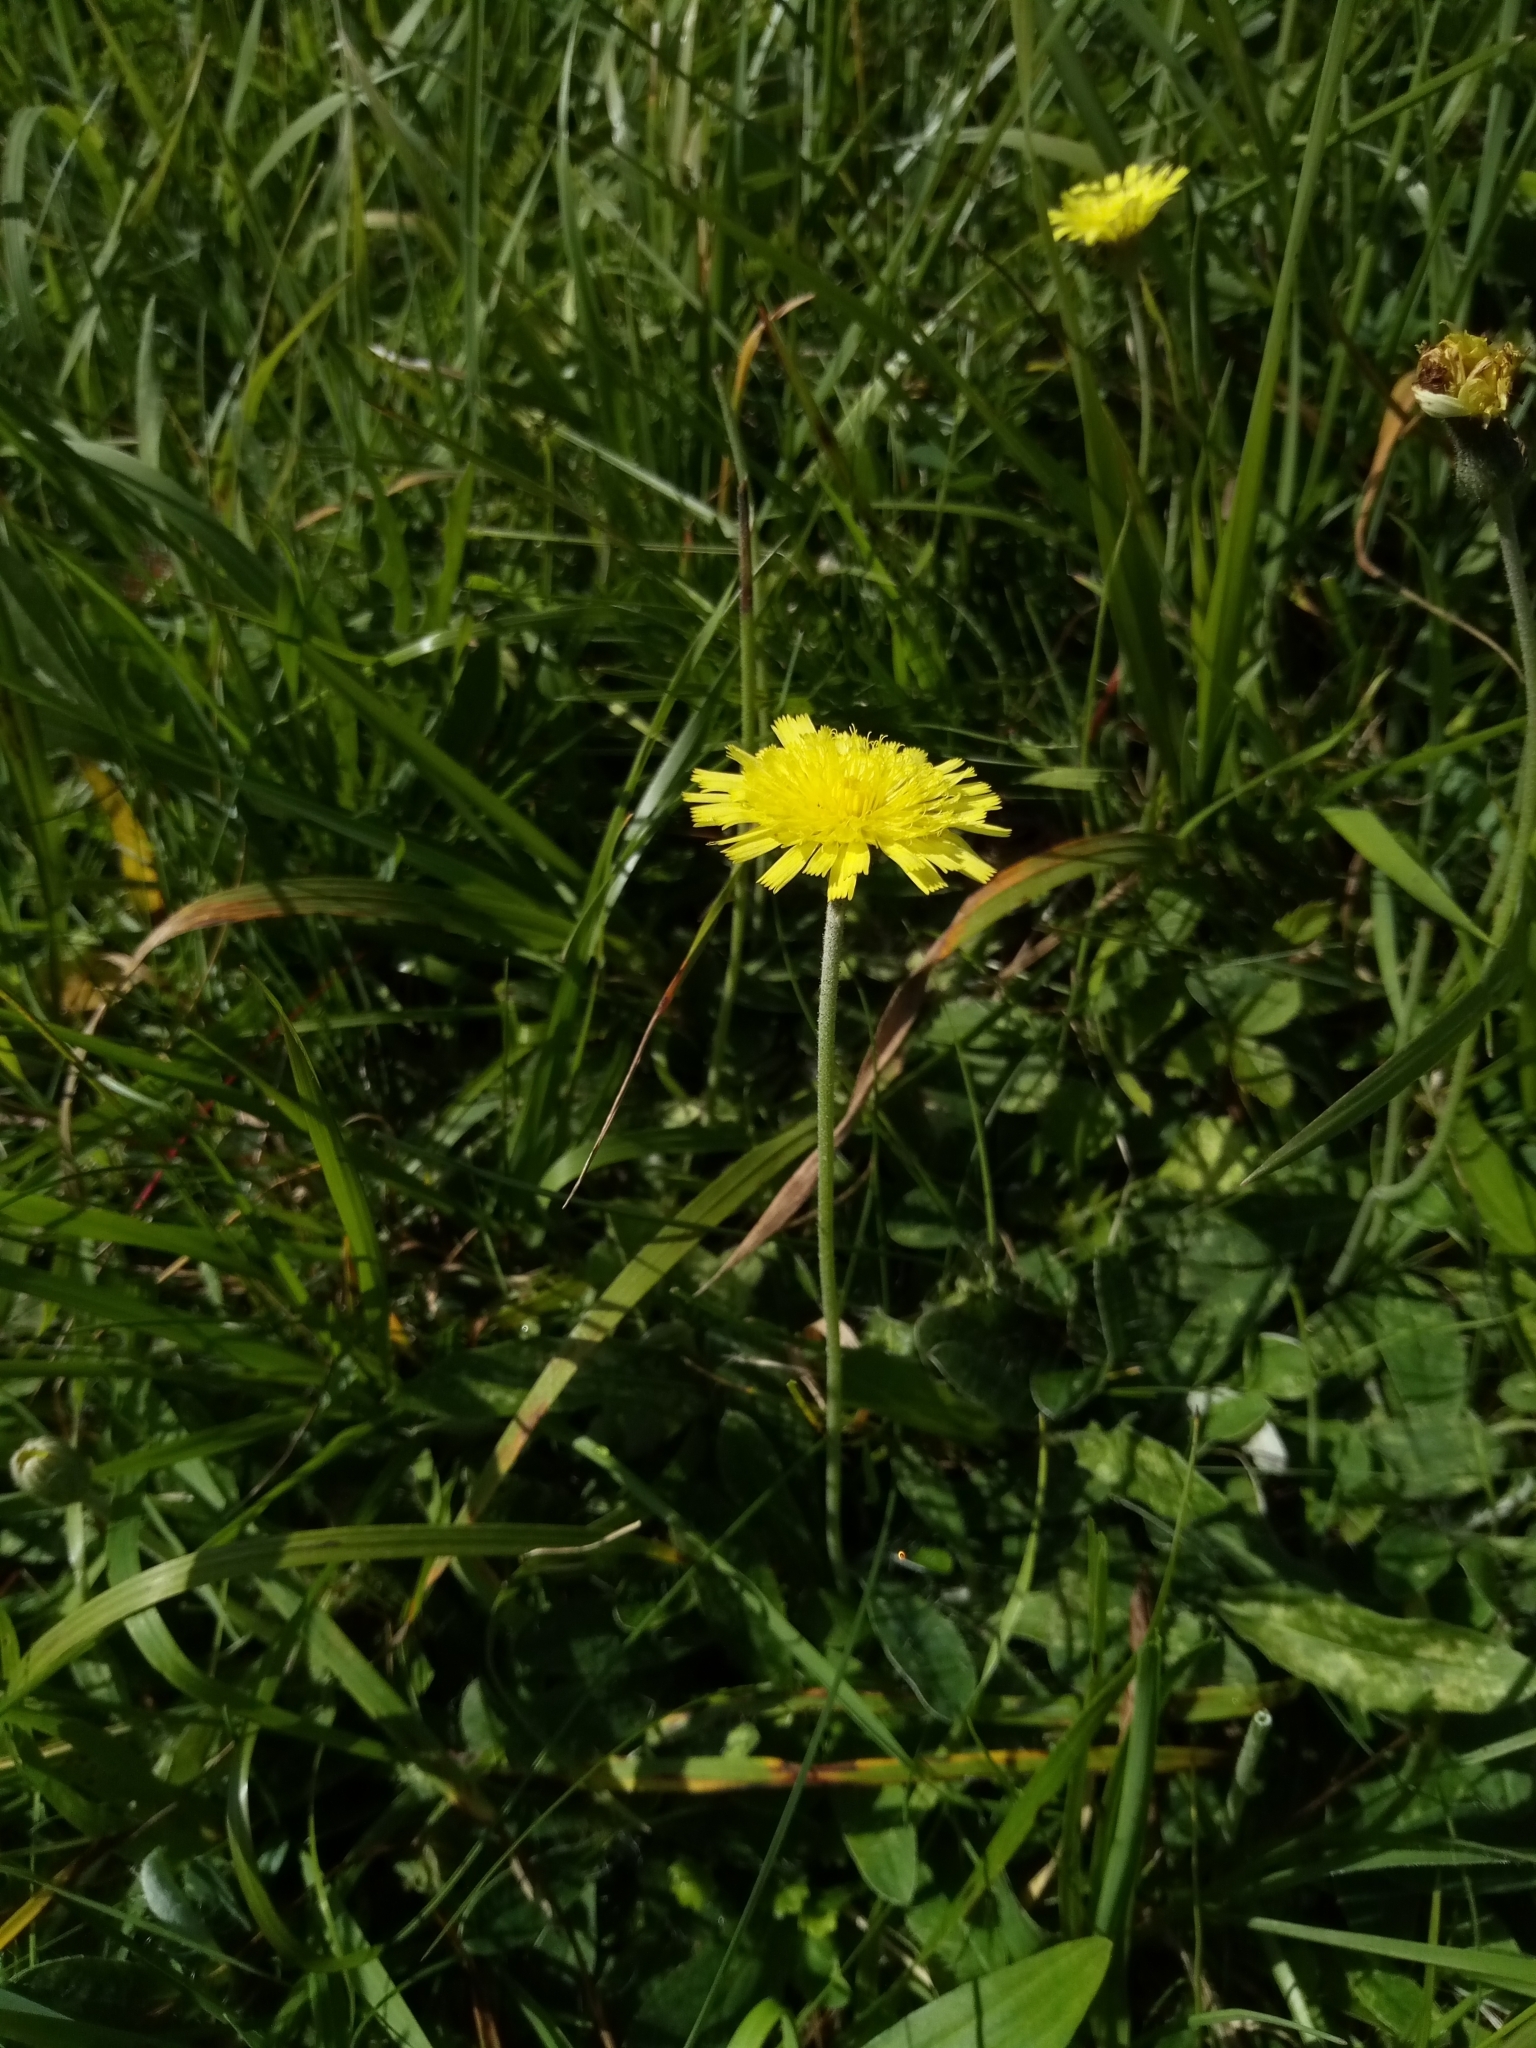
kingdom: Plantae
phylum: Tracheophyta
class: Magnoliopsida
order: Asterales
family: Asteraceae
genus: Pilosella
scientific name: Pilosella officinarum
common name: Mouse-ear hawkweed
